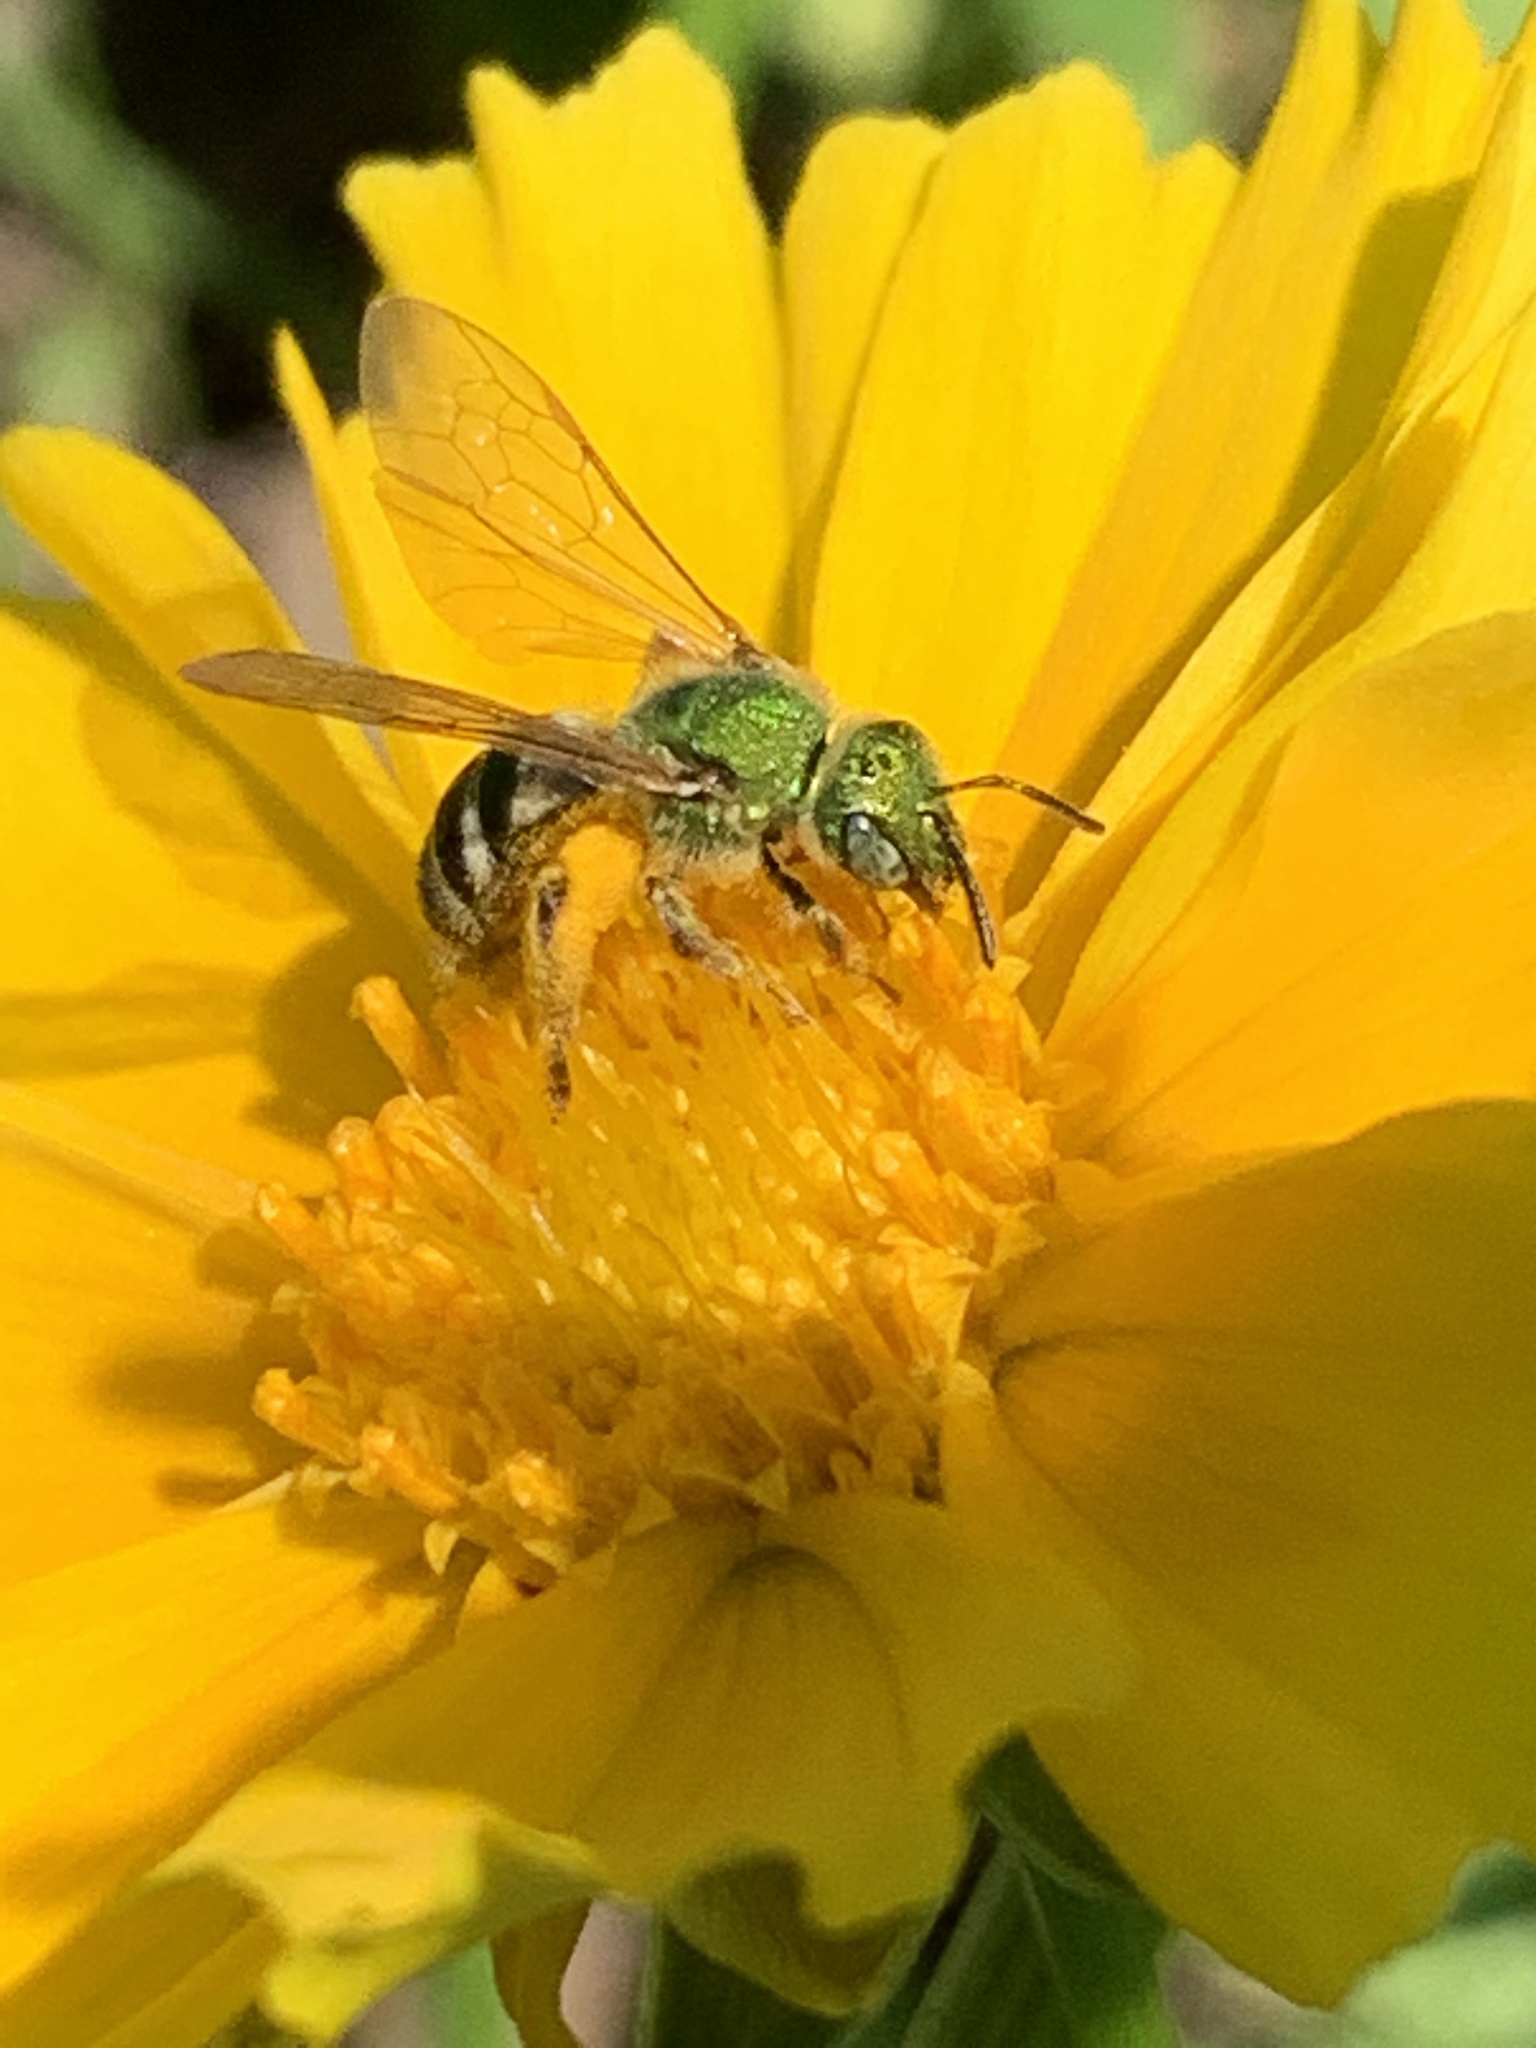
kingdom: Animalia
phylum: Arthropoda
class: Insecta
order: Hymenoptera
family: Halictidae
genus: Agapostemon
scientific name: Agapostemon virescens
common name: Bicolored striped sweat bee
